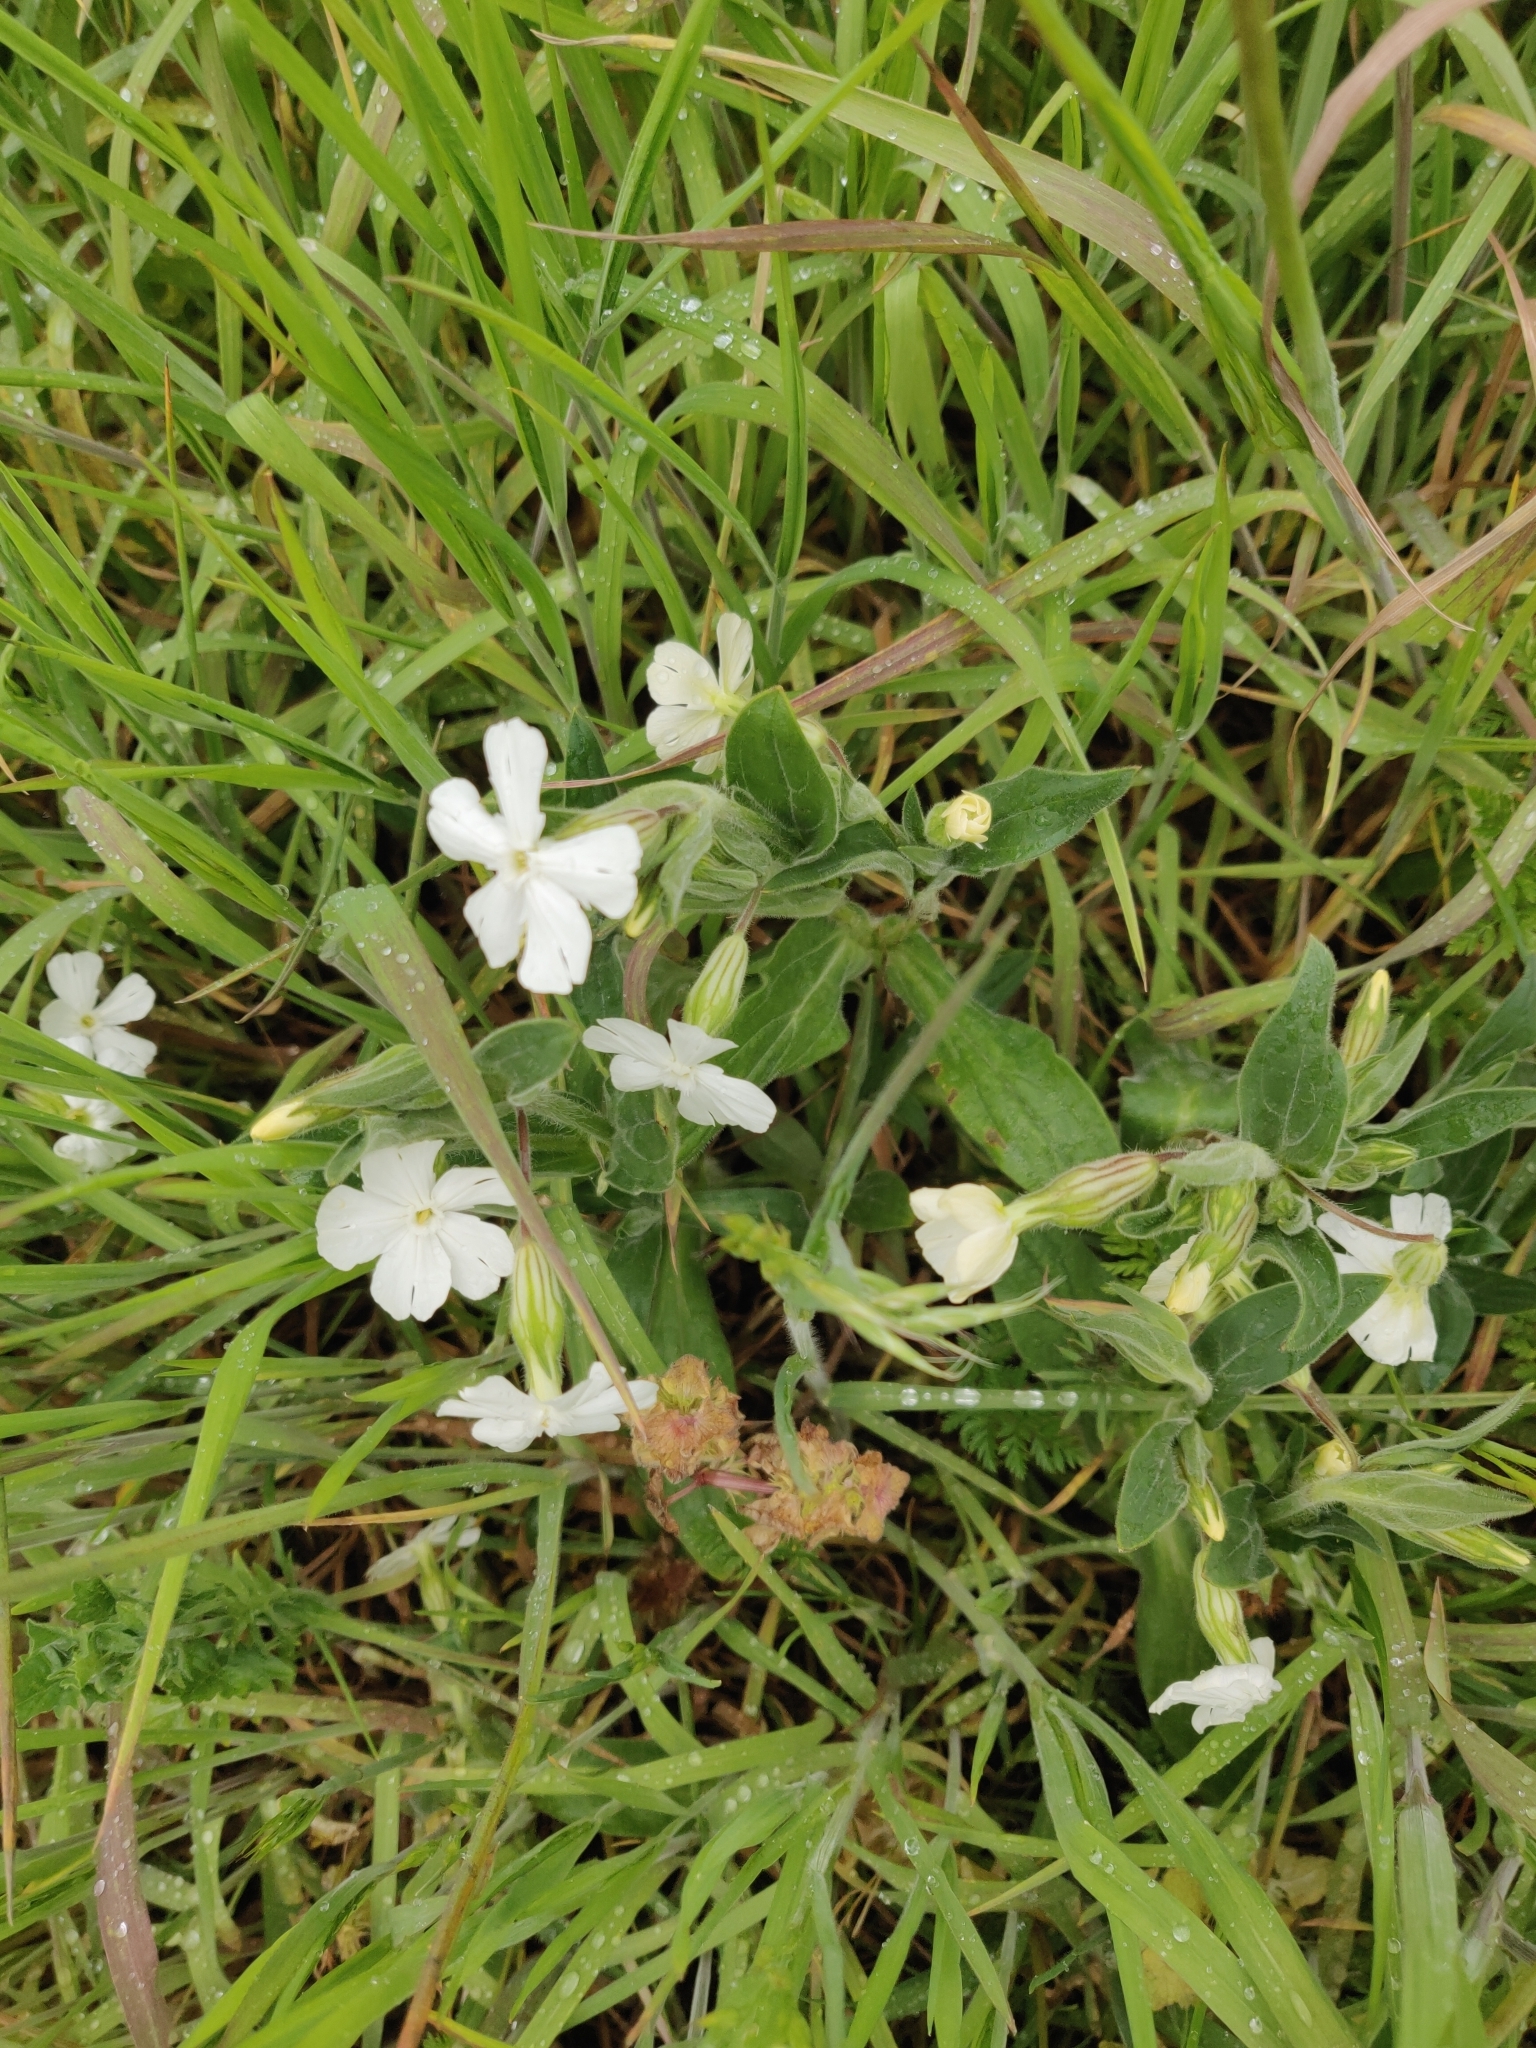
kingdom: Plantae
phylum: Tracheophyta
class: Magnoliopsida
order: Caryophyllales
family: Caryophyllaceae
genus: Silene
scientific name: Silene latifolia
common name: White campion
